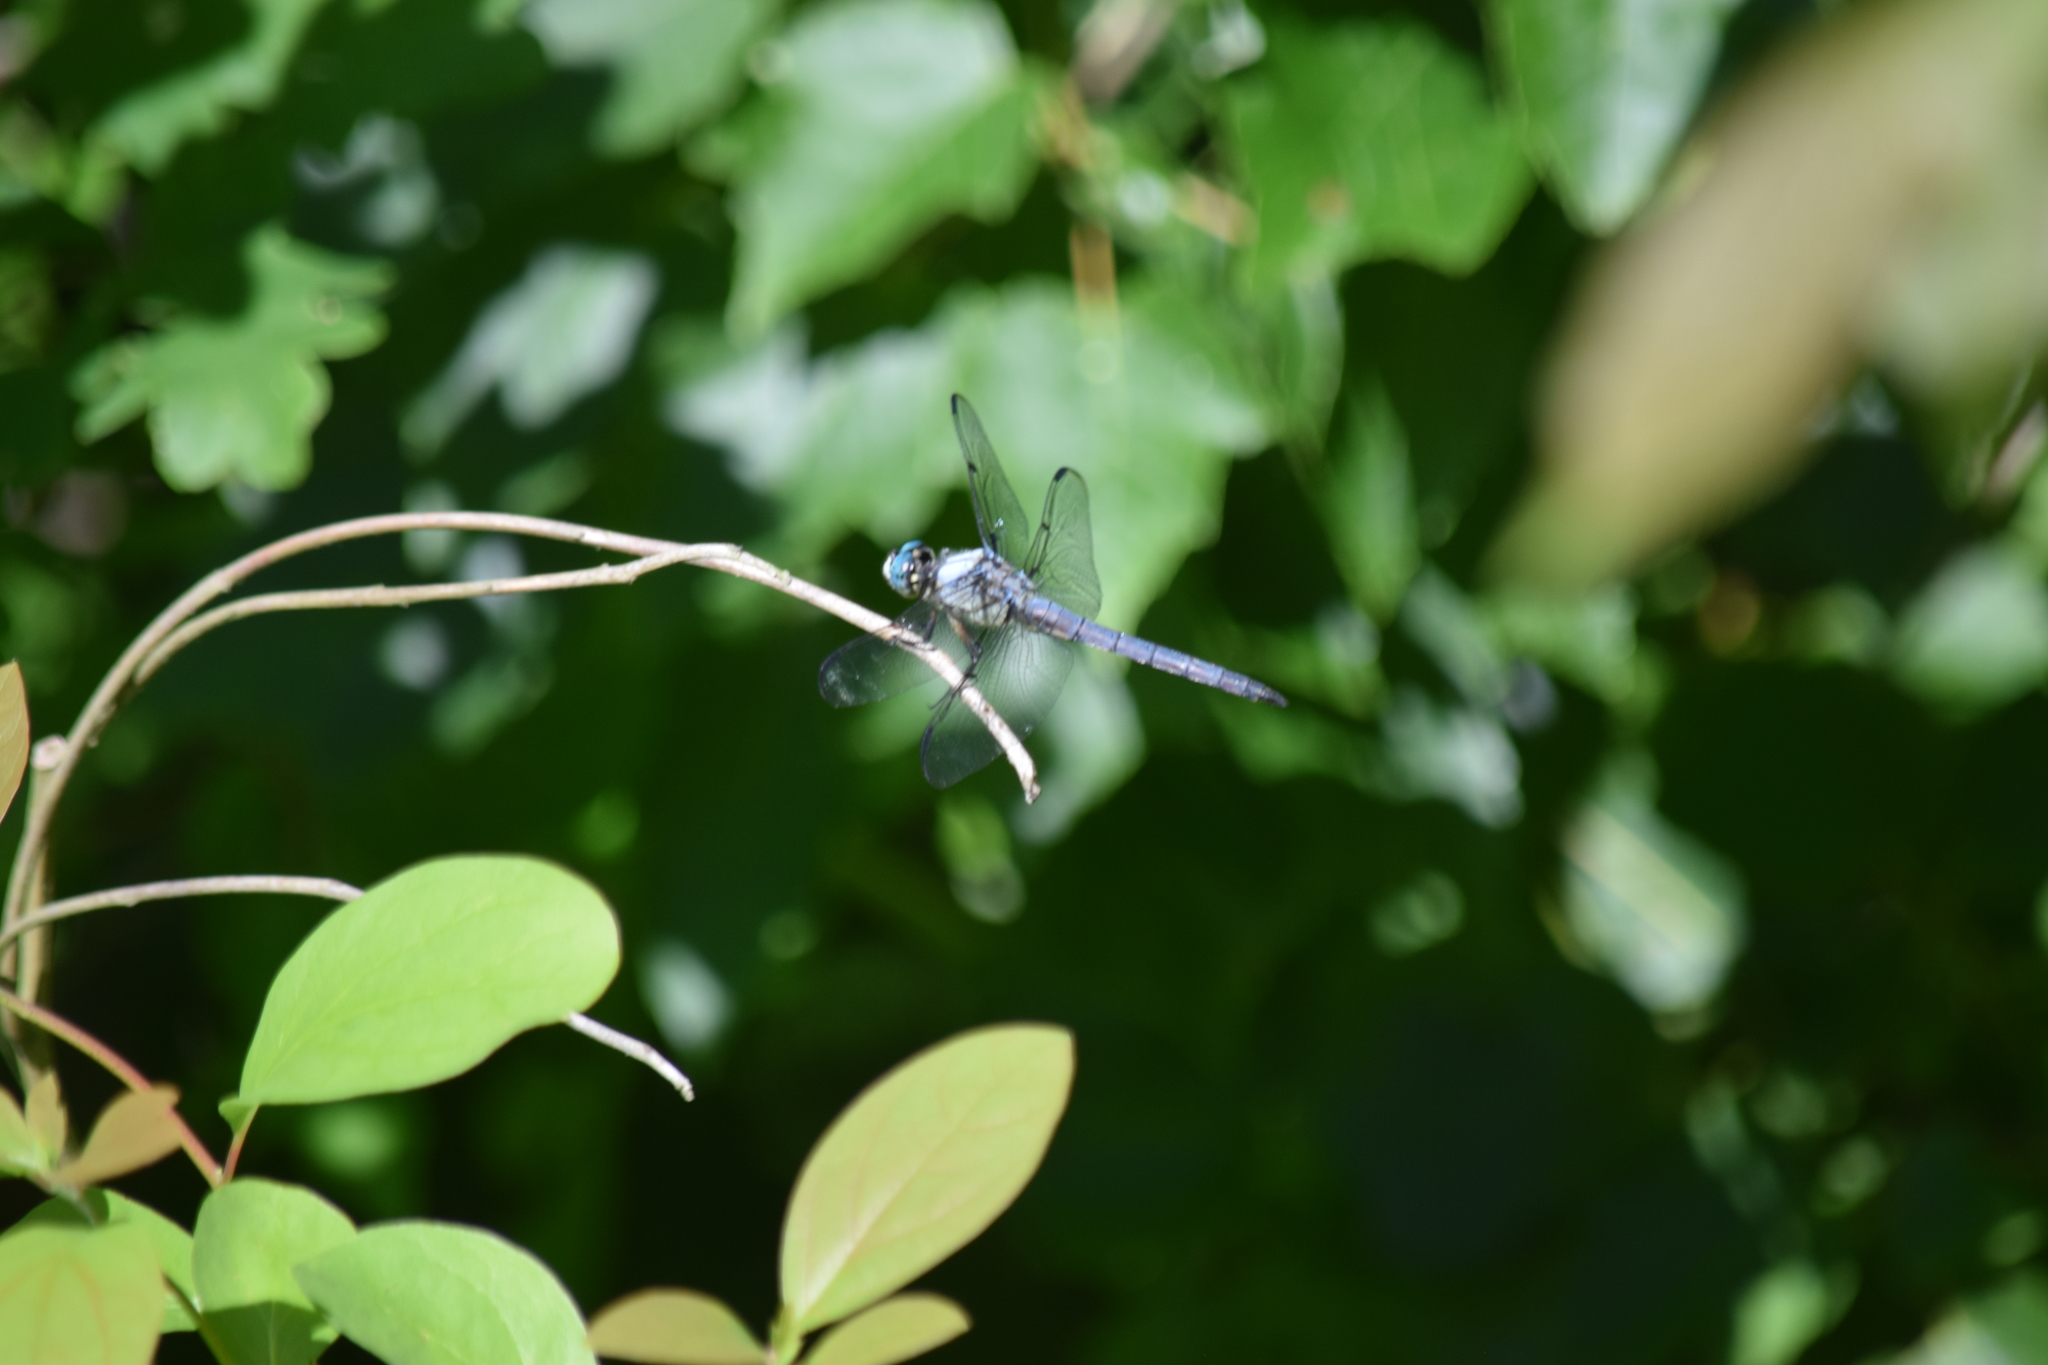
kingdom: Animalia
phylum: Arthropoda
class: Insecta
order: Odonata
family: Libellulidae
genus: Libellula
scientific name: Libellula vibrans
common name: Great blue skimmer
